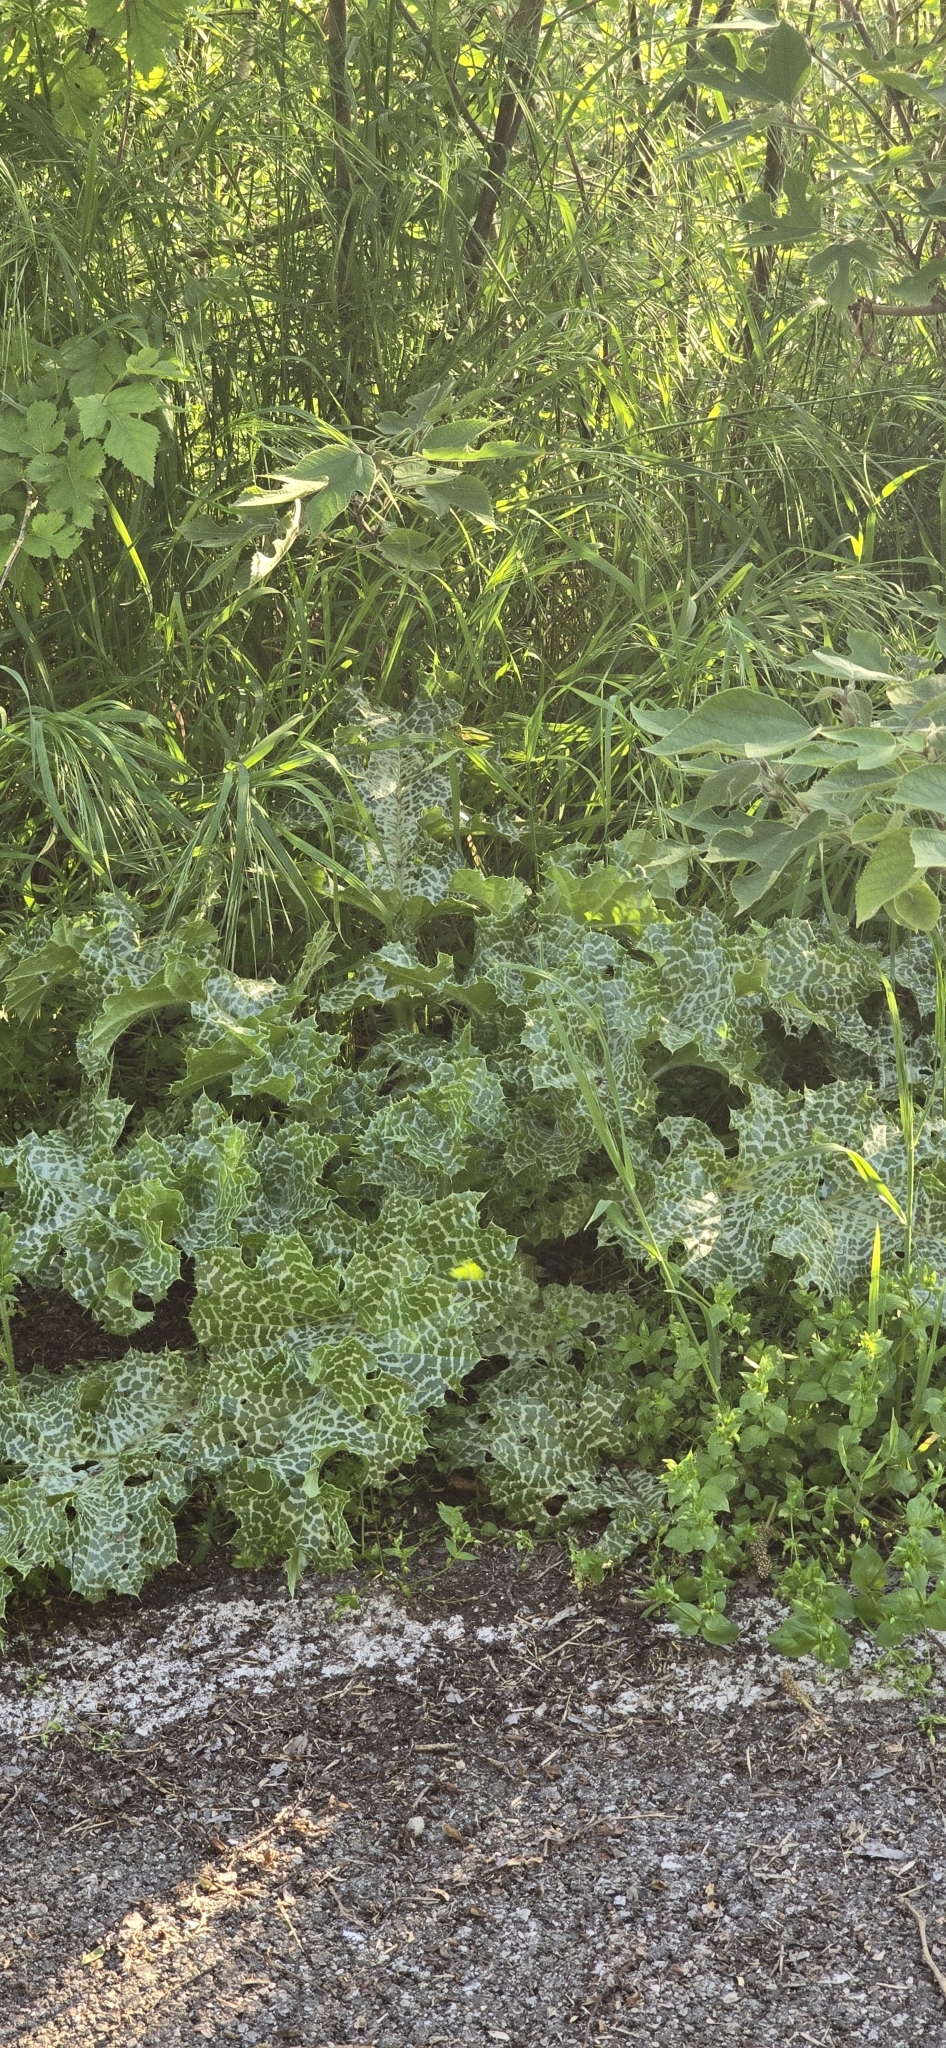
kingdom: Plantae
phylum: Tracheophyta
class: Magnoliopsida
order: Asterales
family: Asteraceae
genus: Silybum
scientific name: Silybum marianum
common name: Milk thistle
